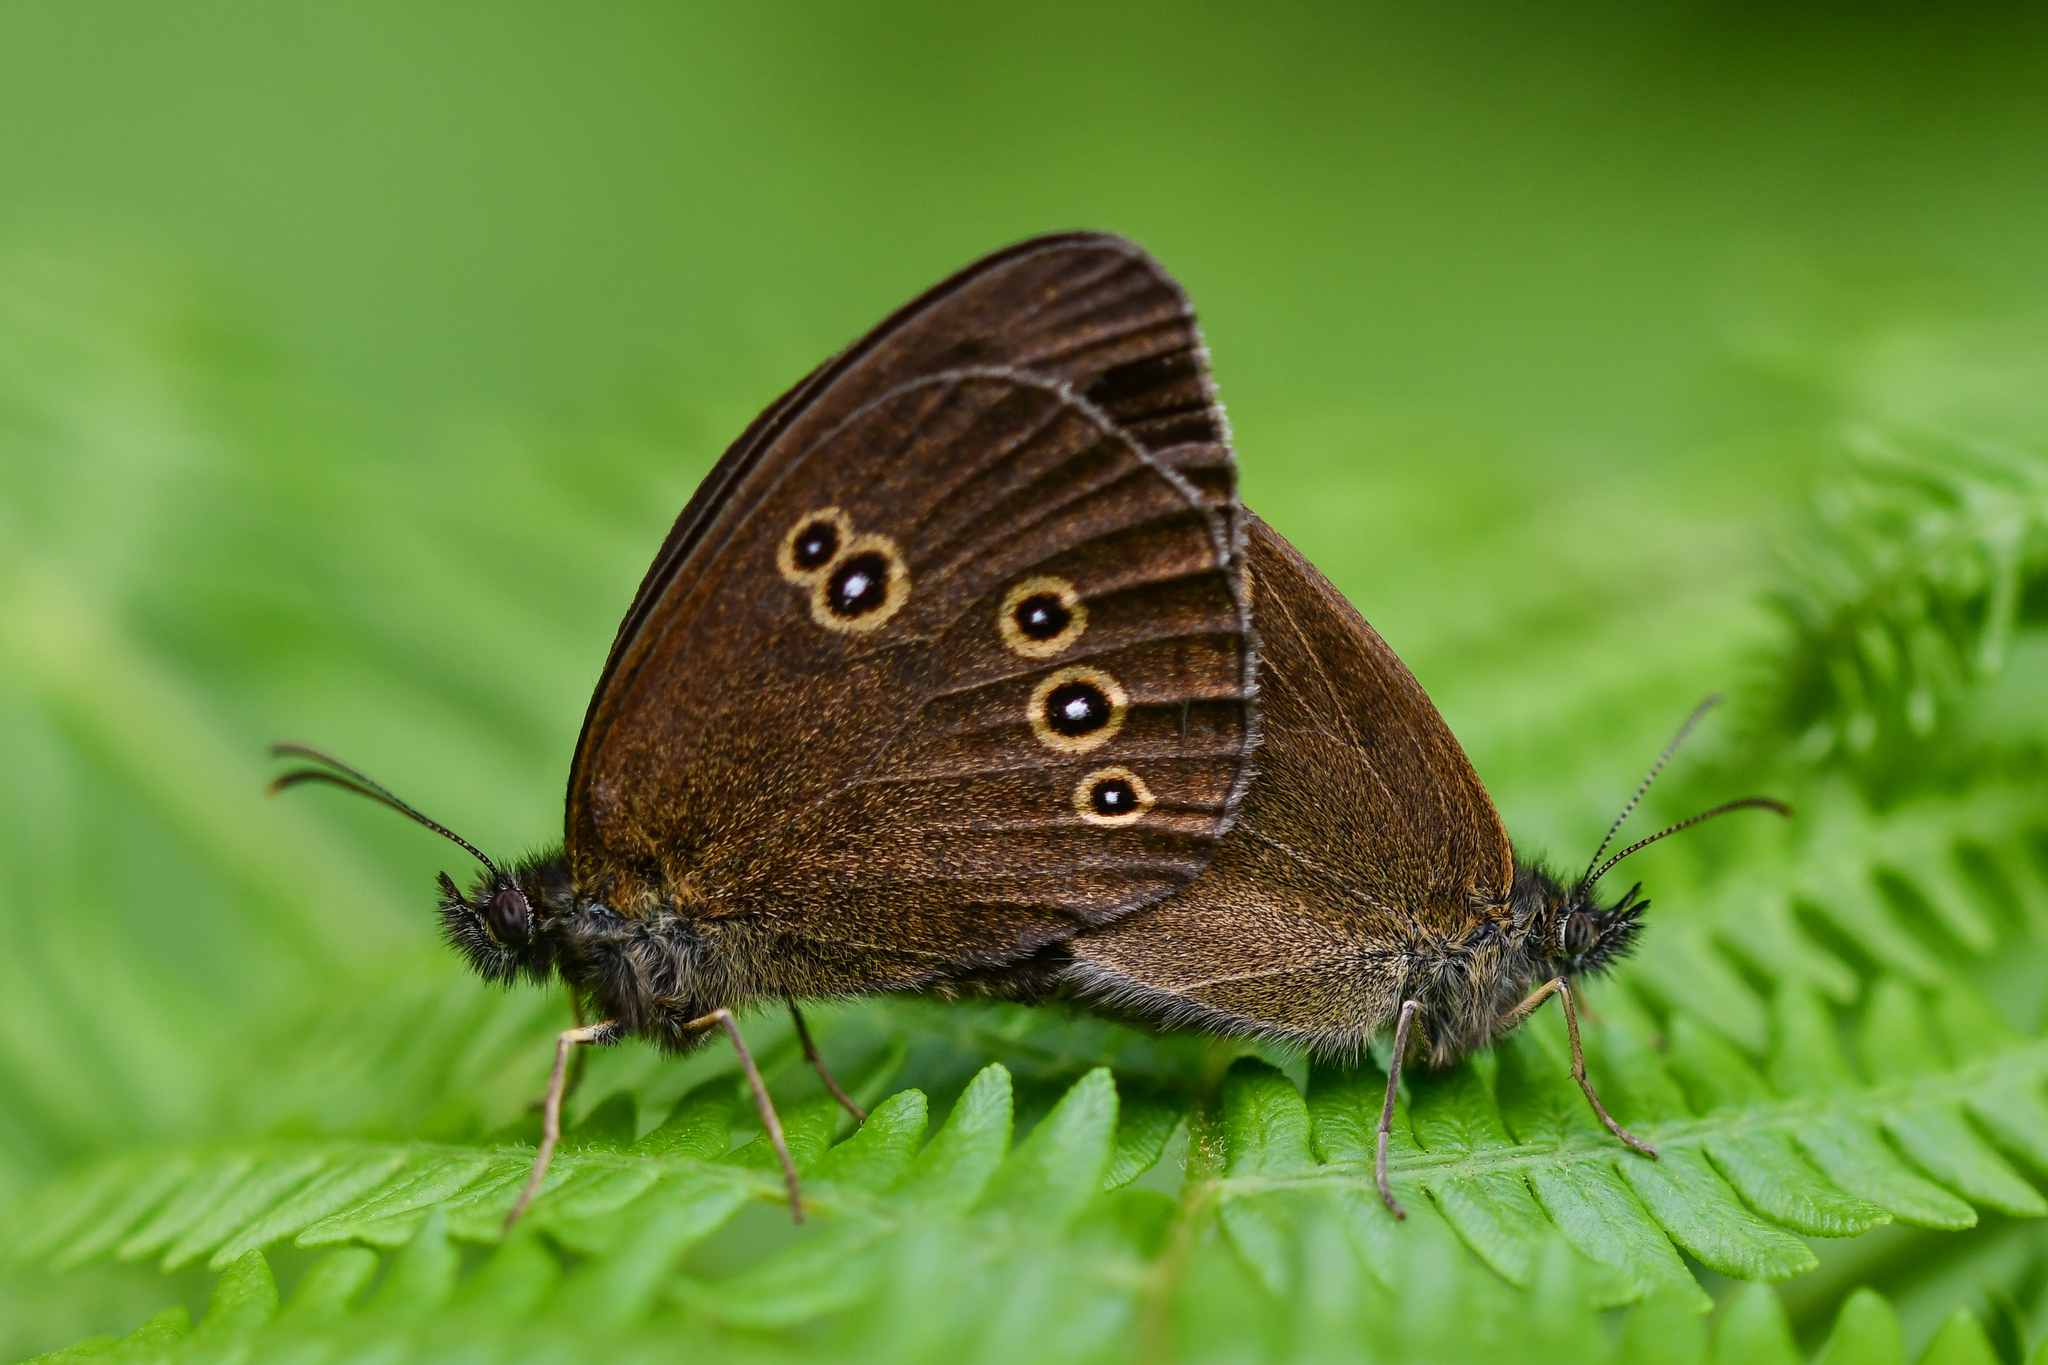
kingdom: Animalia
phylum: Arthropoda
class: Insecta
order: Lepidoptera
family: Nymphalidae
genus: Aphantopus
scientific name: Aphantopus hyperantus
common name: Ringlet
